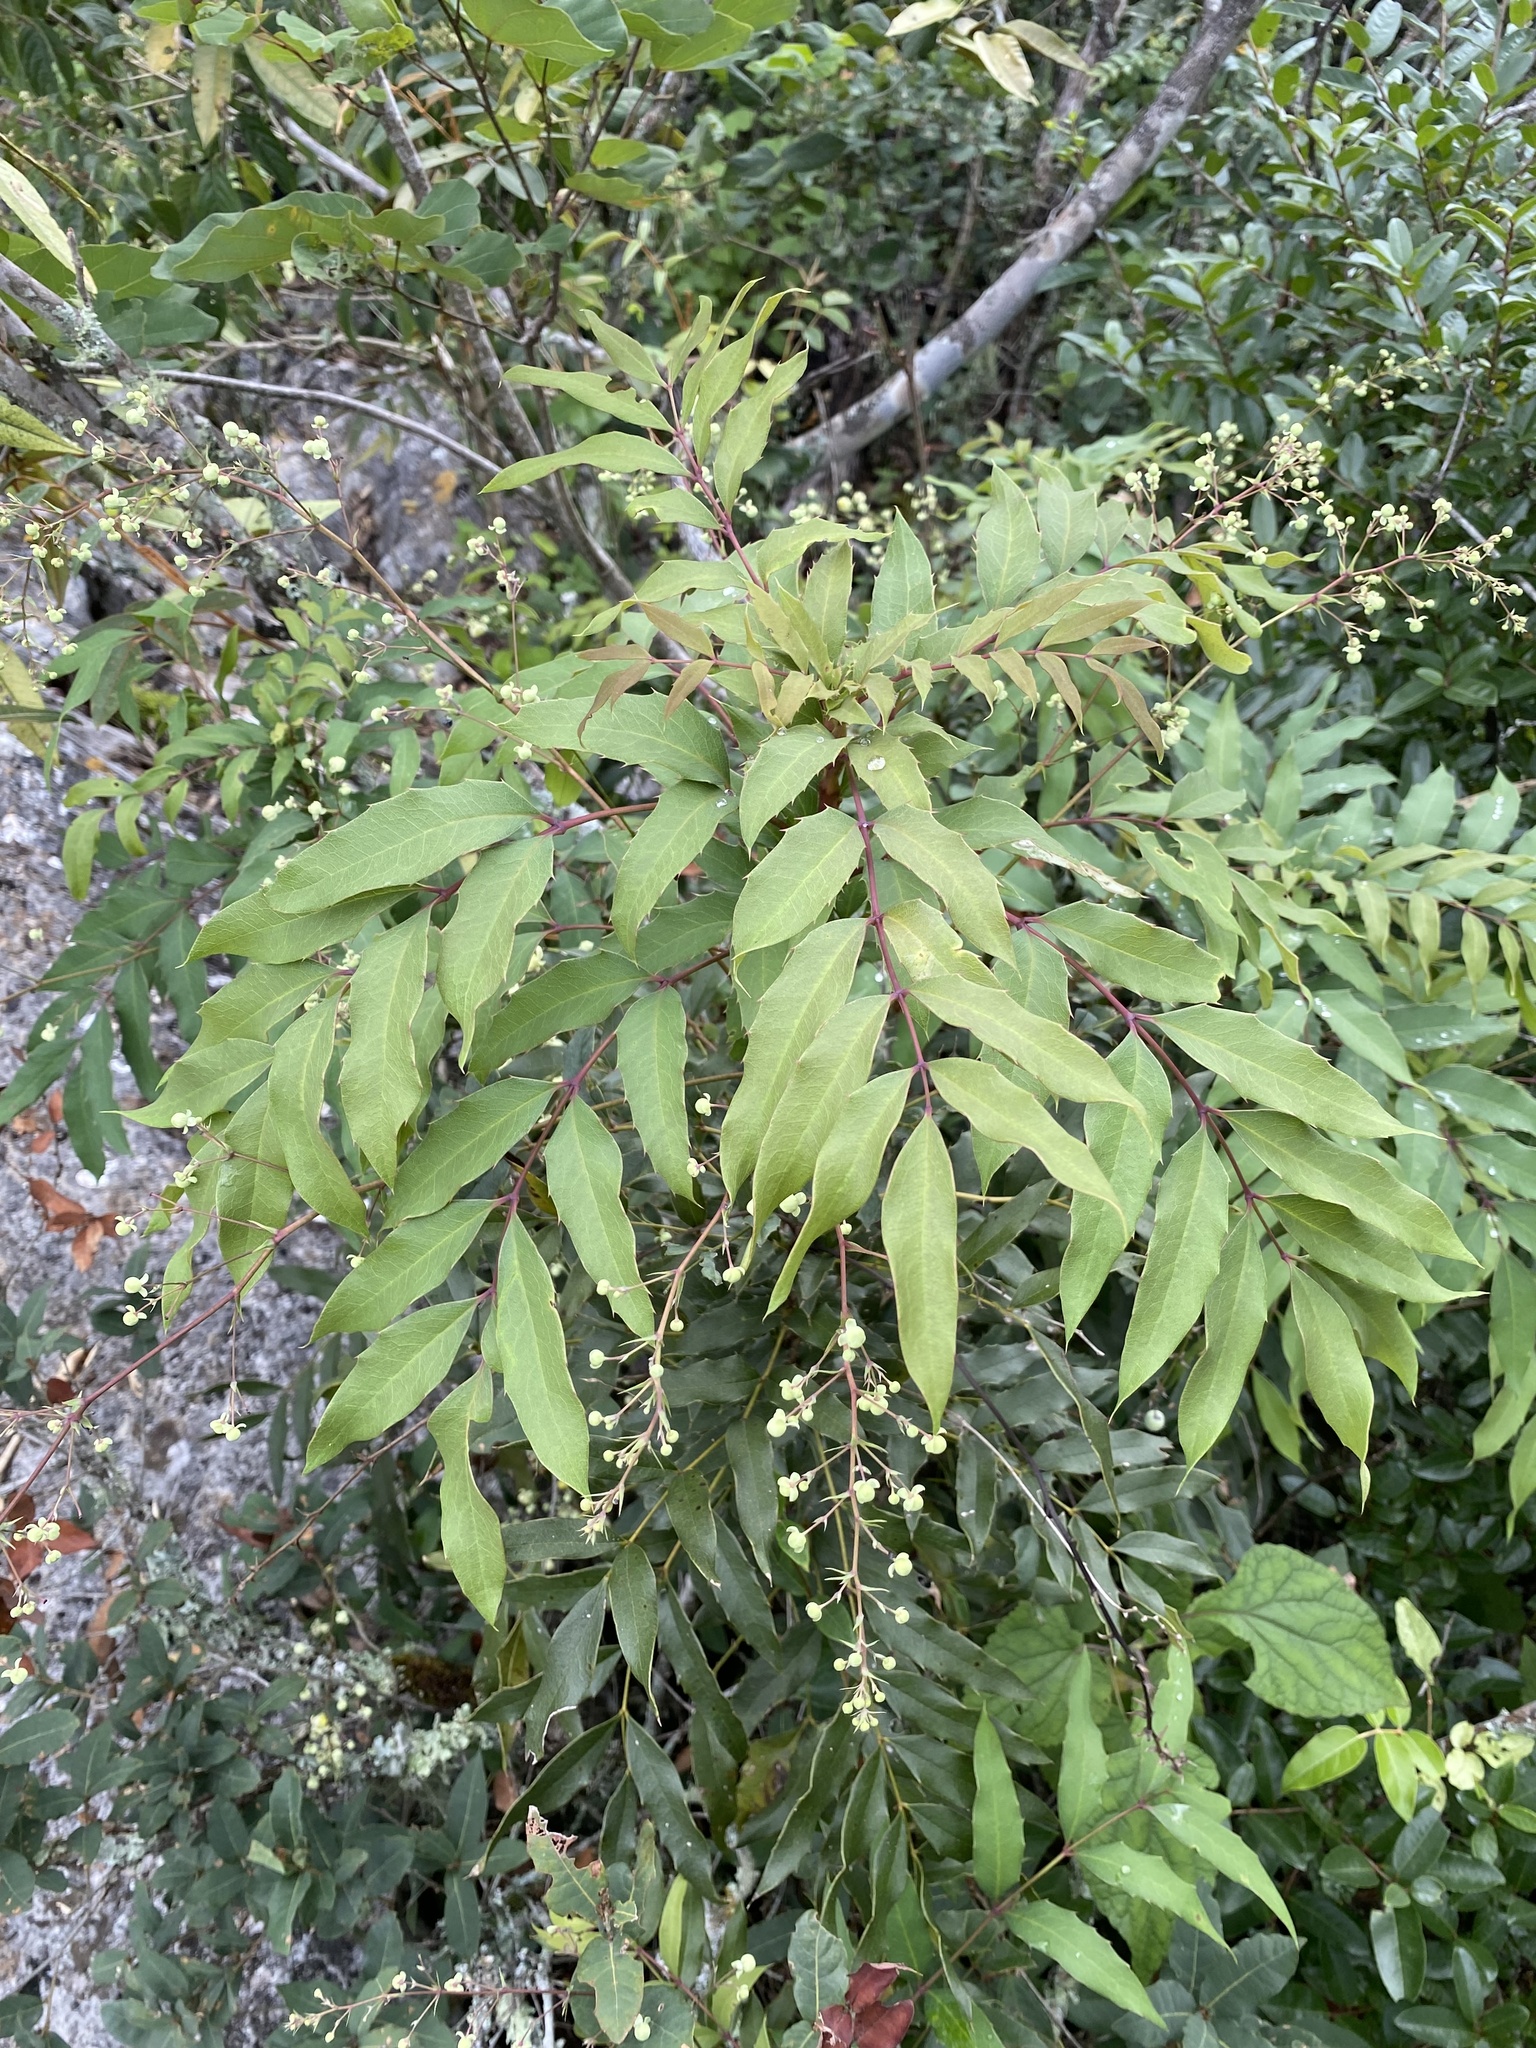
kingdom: Plantae
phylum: Tracheophyta
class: Magnoliopsida
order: Ranunculales
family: Berberidaceae
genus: Mahonia
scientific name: Mahonia hartwegii
